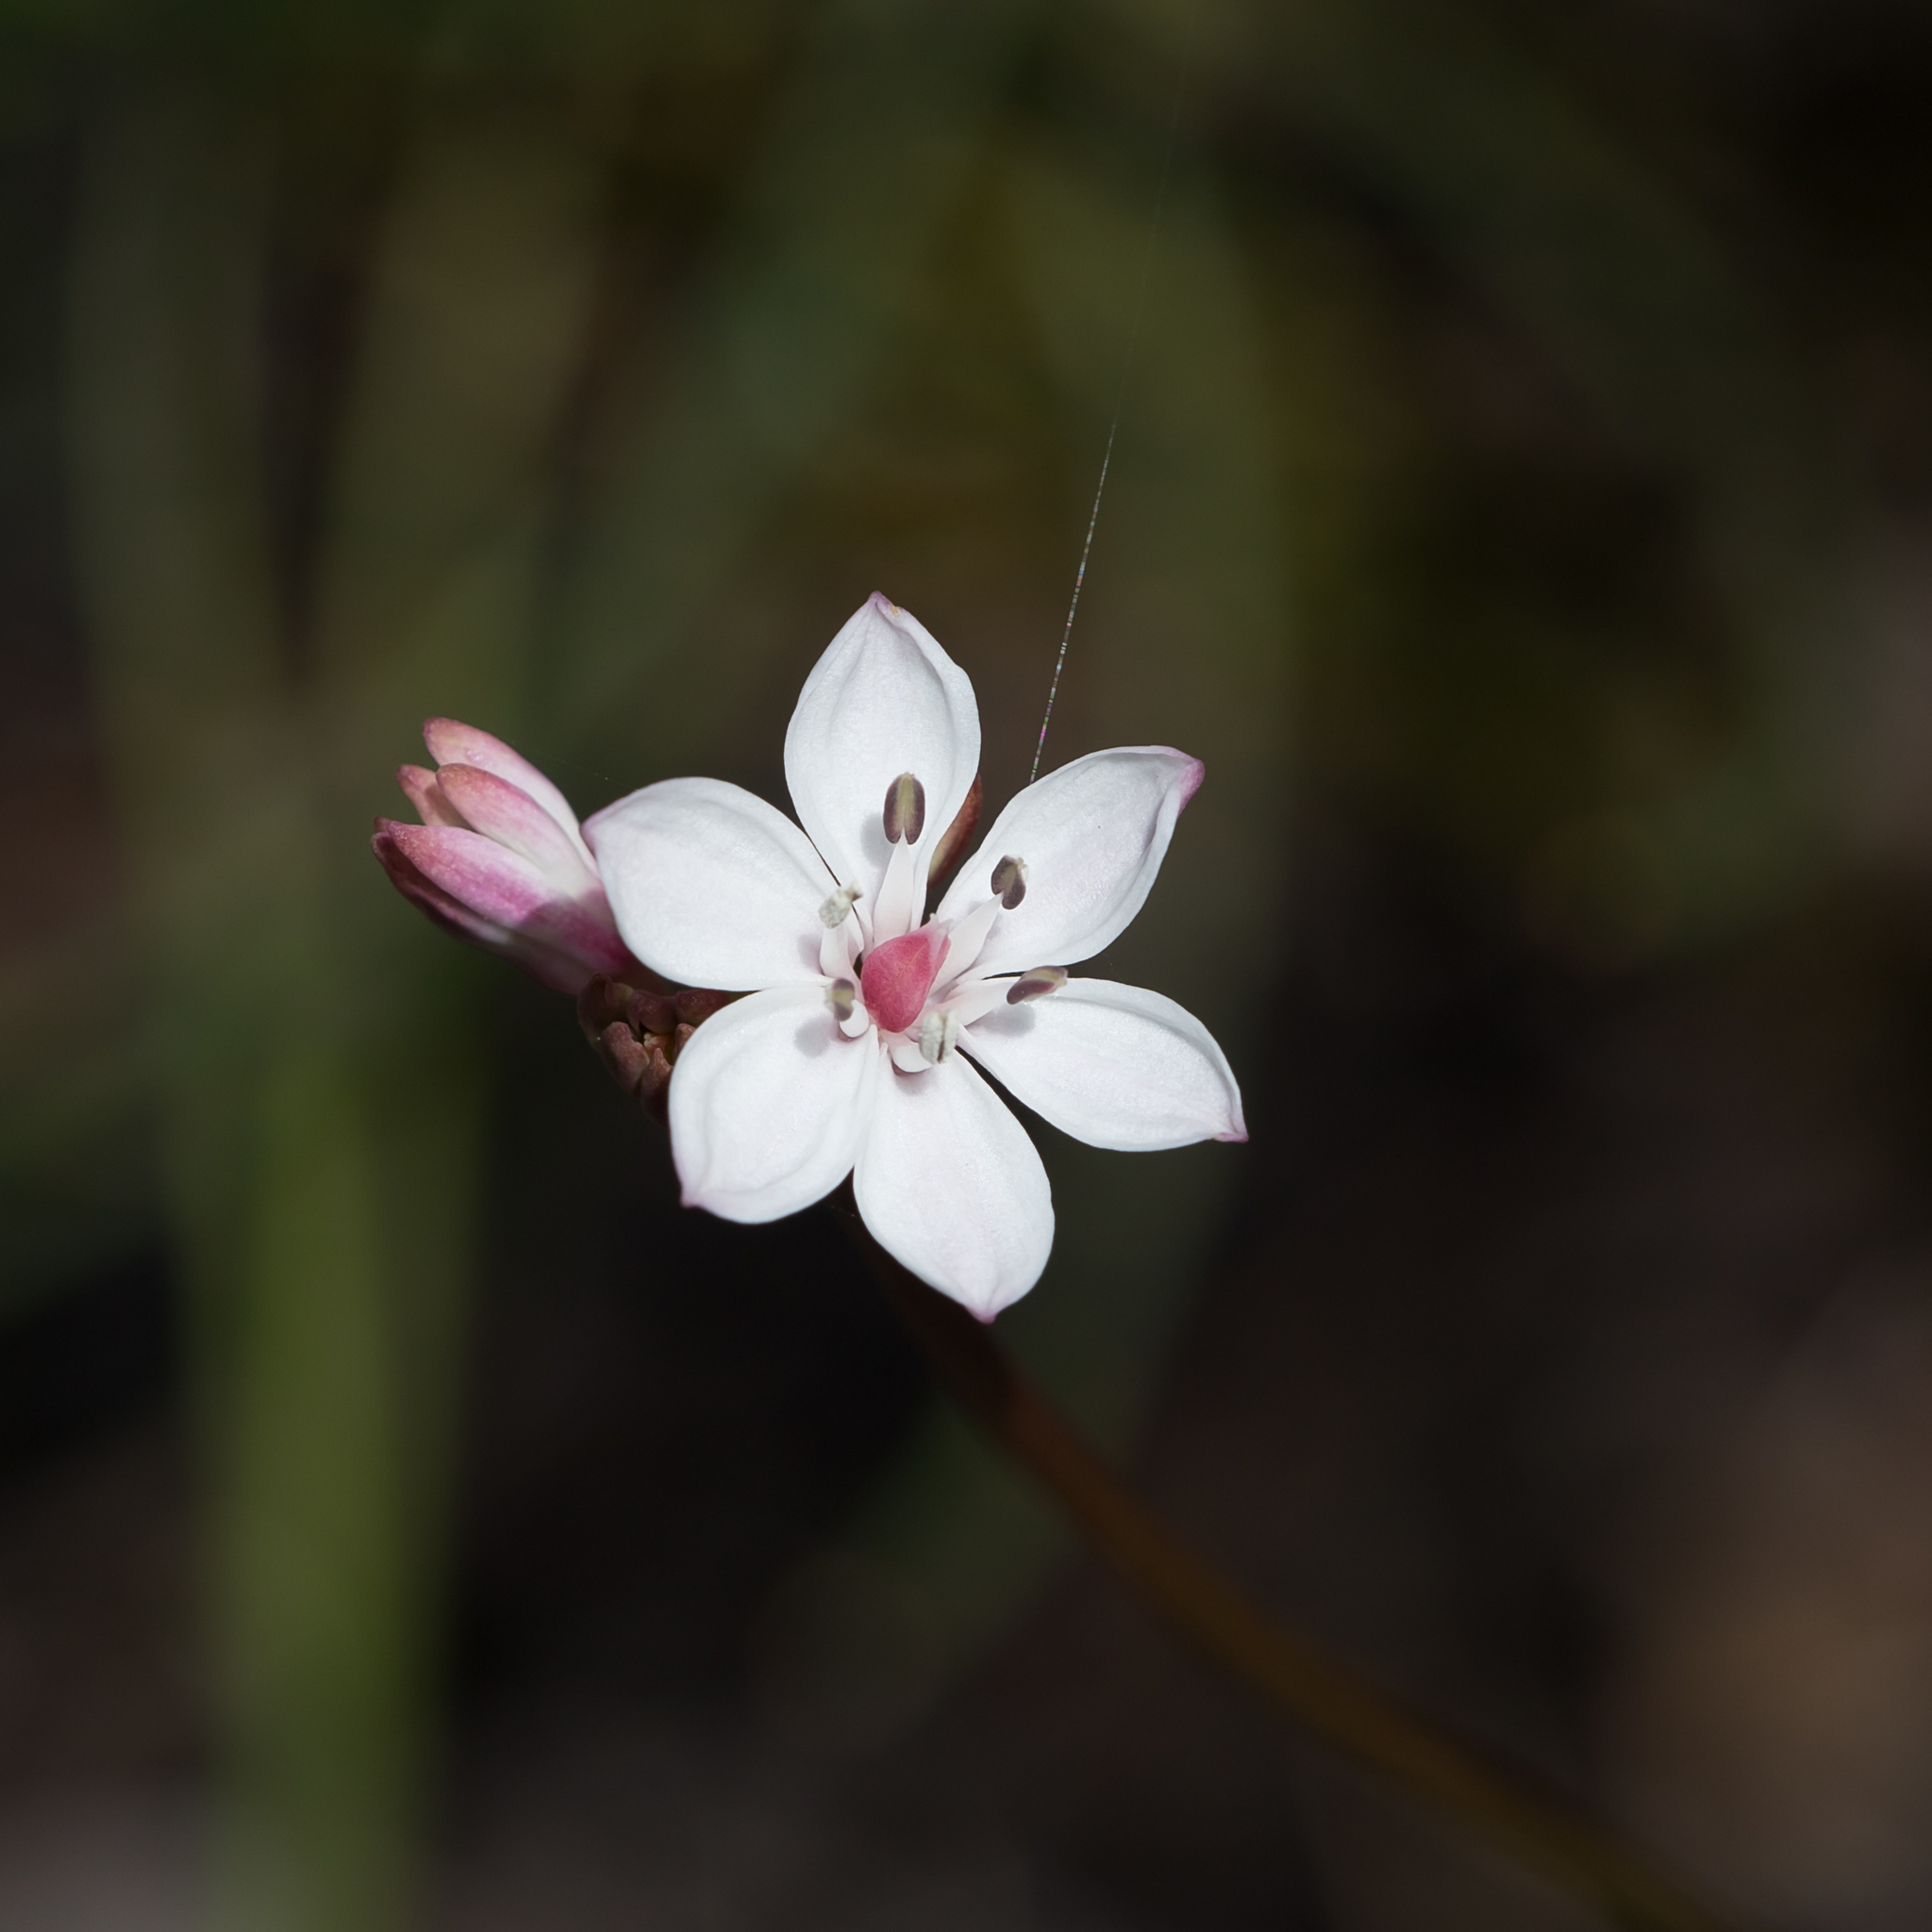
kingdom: Plantae
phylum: Tracheophyta
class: Liliopsida
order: Liliales
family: Colchicaceae
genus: Burchardia
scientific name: Burchardia umbellata
